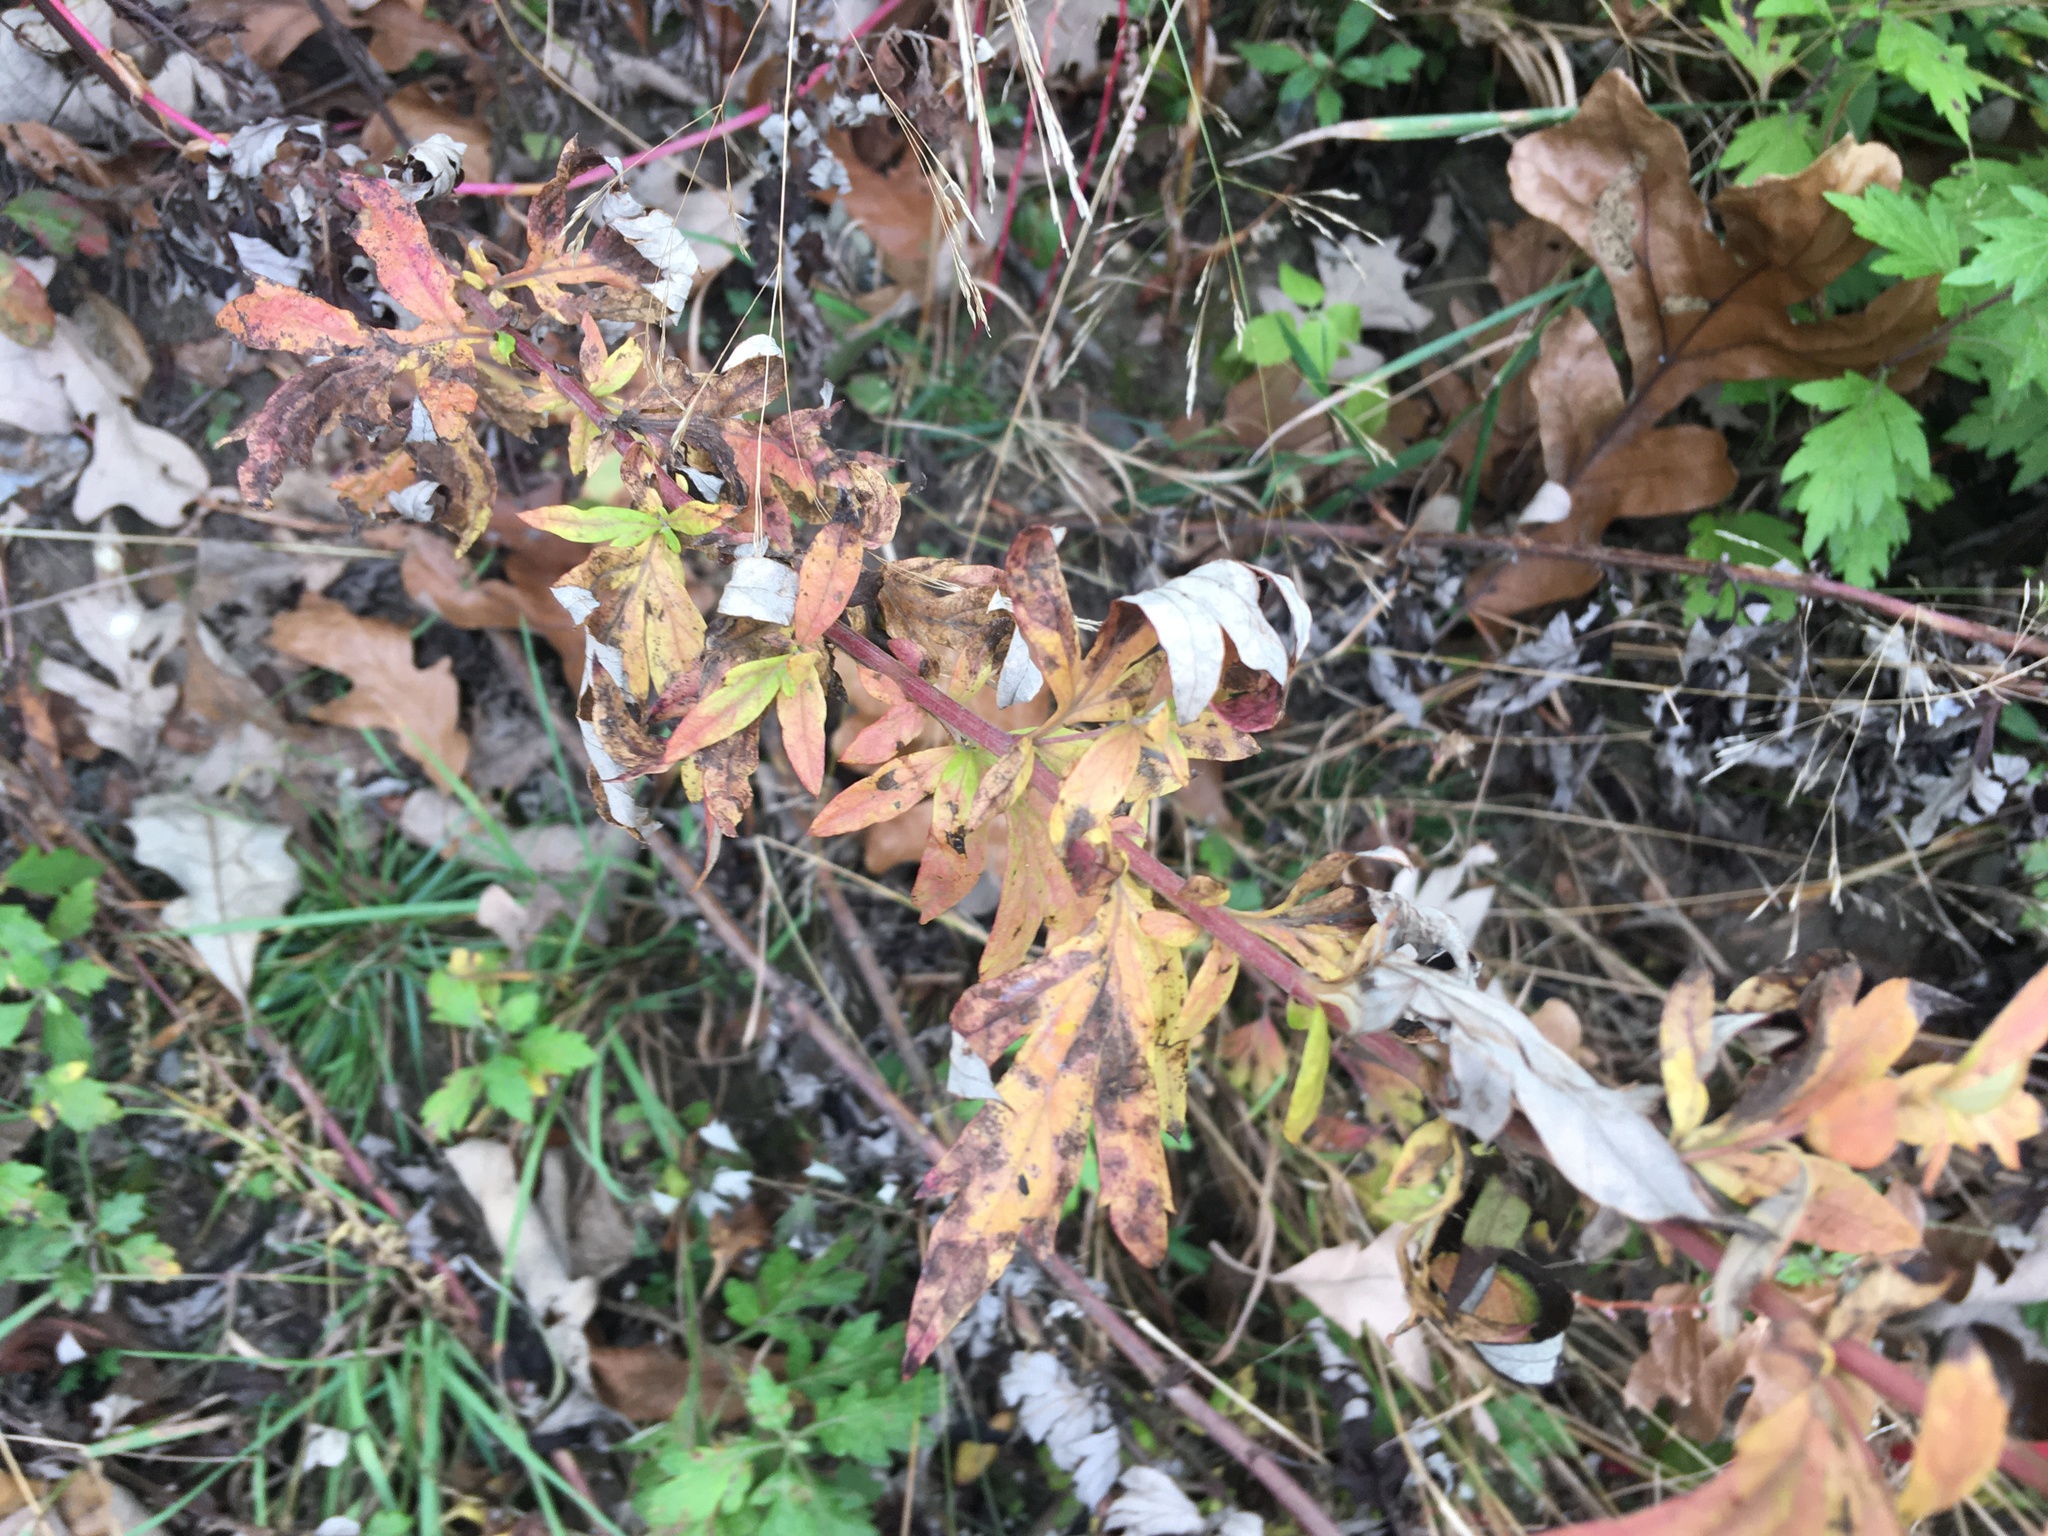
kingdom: Plantae
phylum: Tracheophyta
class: Magnoliopsida
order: Asterales
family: Asteraceae
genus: Artemisia
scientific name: Artemisia vulgaris
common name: Mugwort
